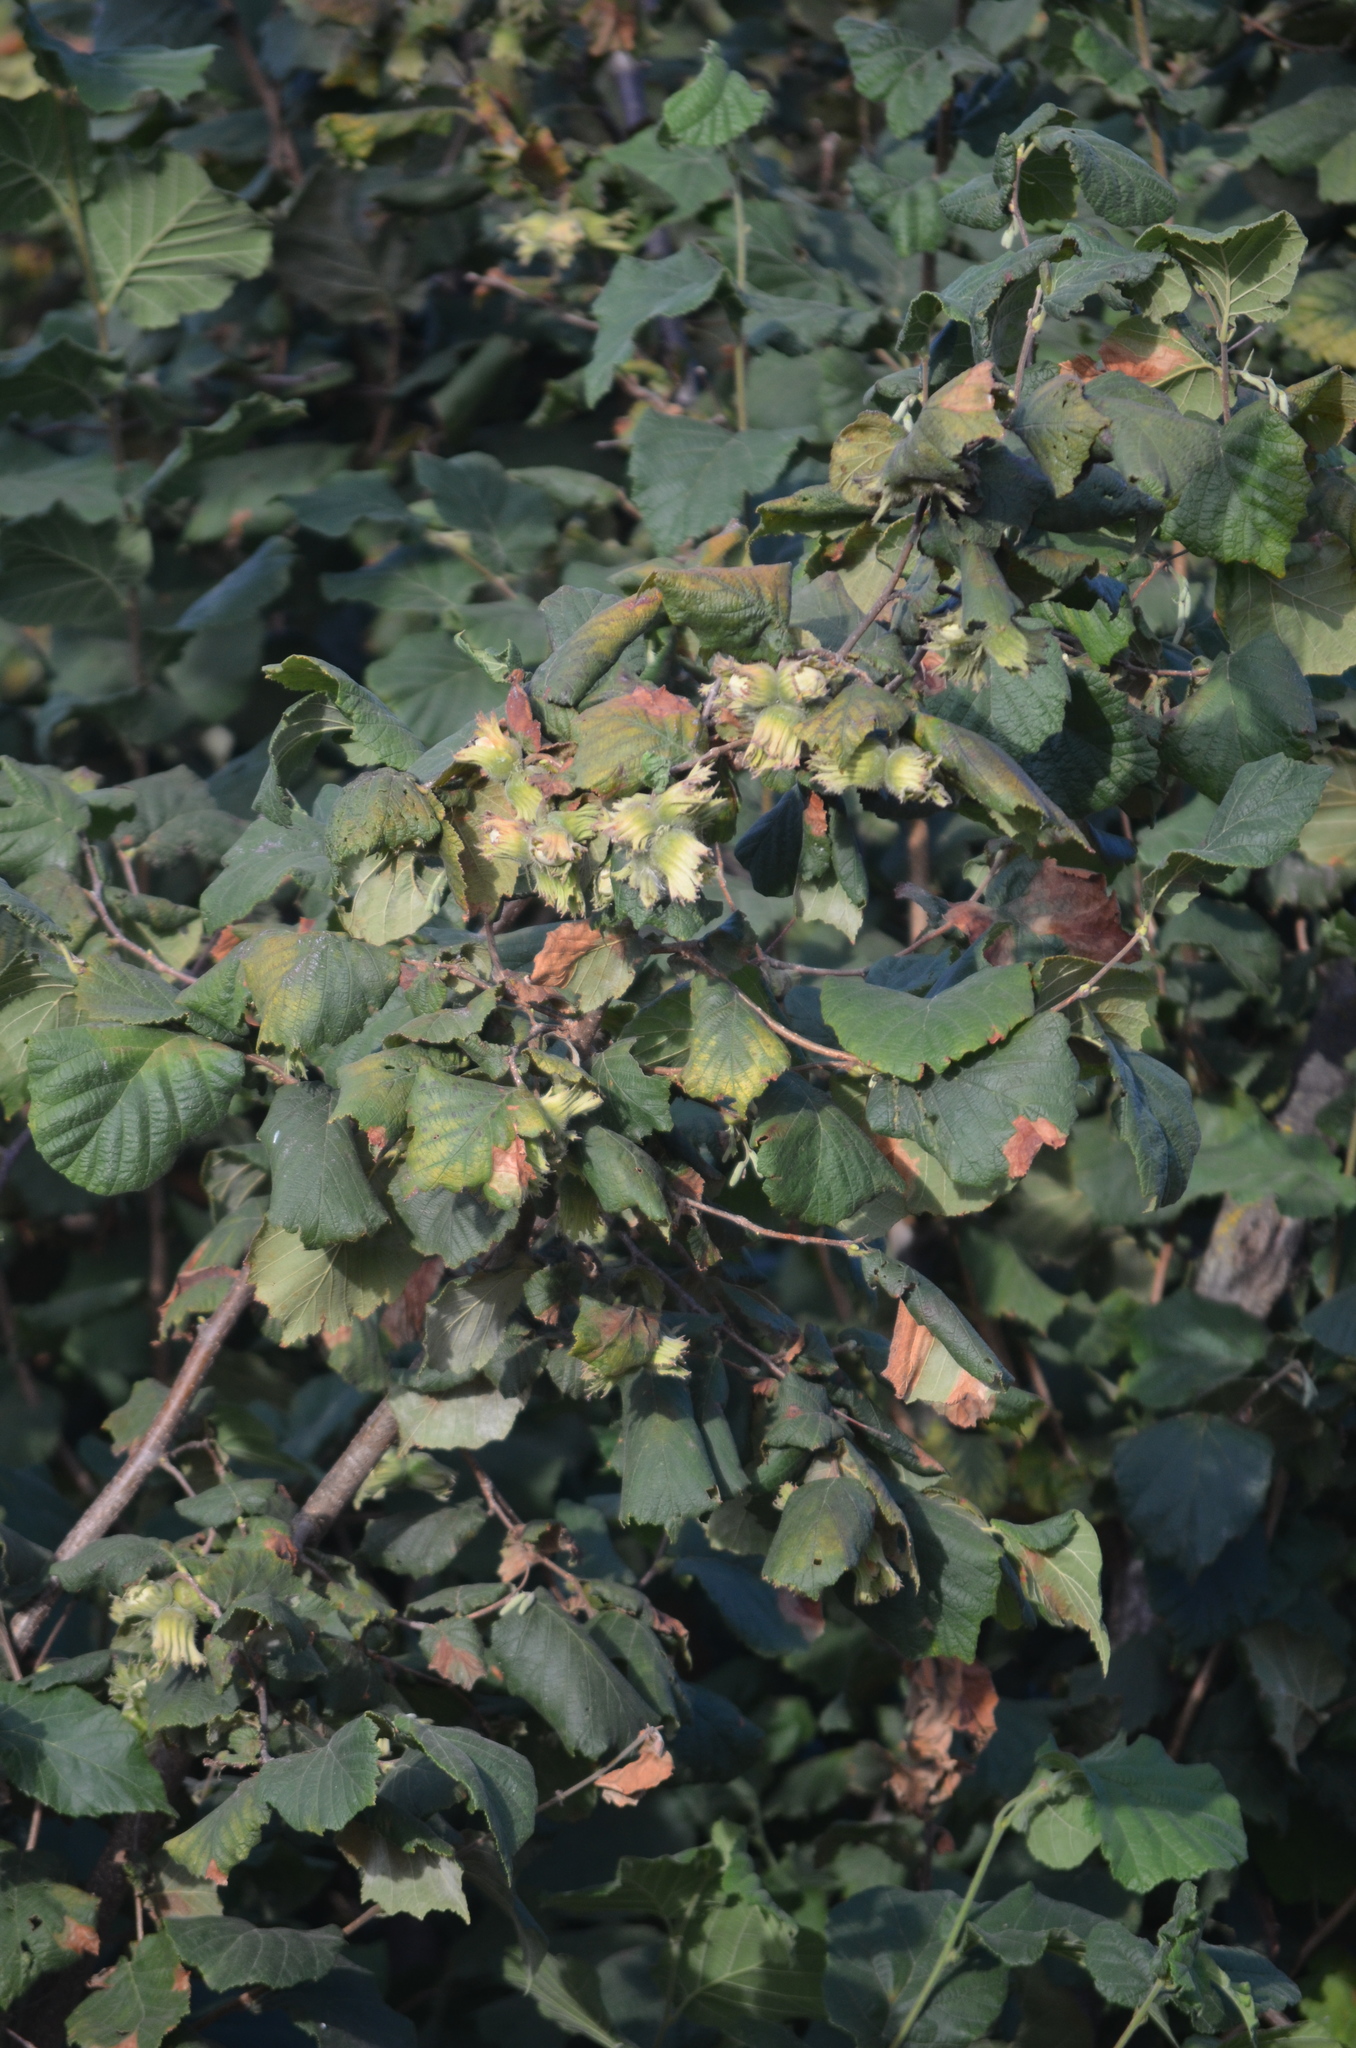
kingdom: Plantae
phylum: Tracheophyta
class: Magnoliopsida
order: Fagales
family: Betulaceae
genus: Corylus
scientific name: Corylus avellana
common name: European hazel
